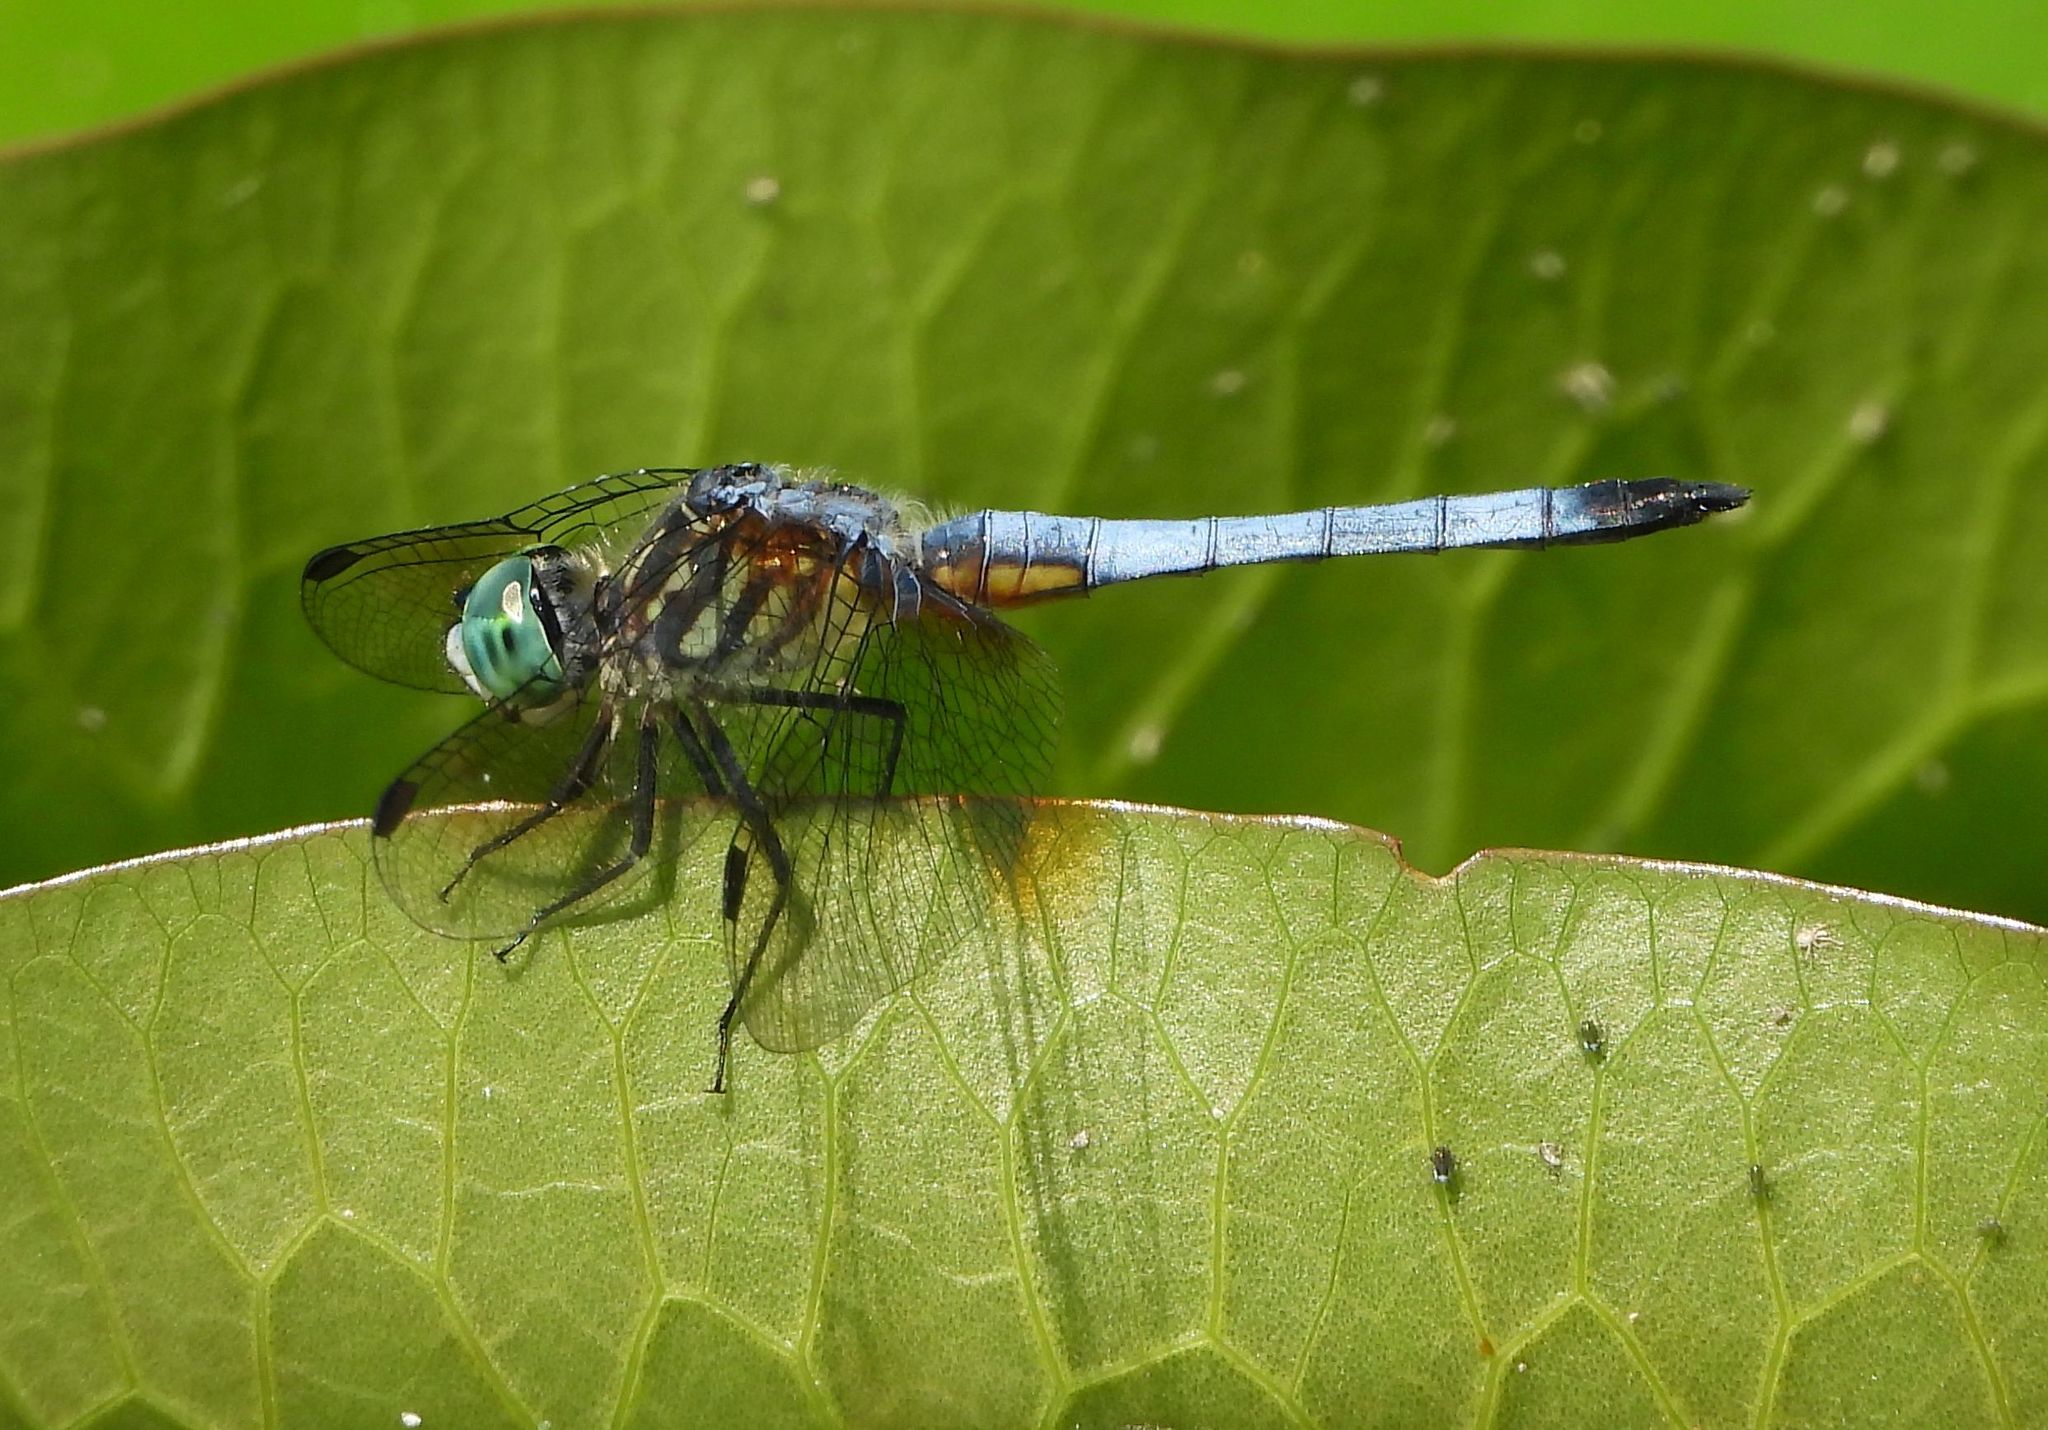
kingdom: Animalia
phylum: Arthropoda
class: Insecta
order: Odonata
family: Libellulidae
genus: Pachydiplax
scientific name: Pachydiplax longipennis
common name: Blue dasher
